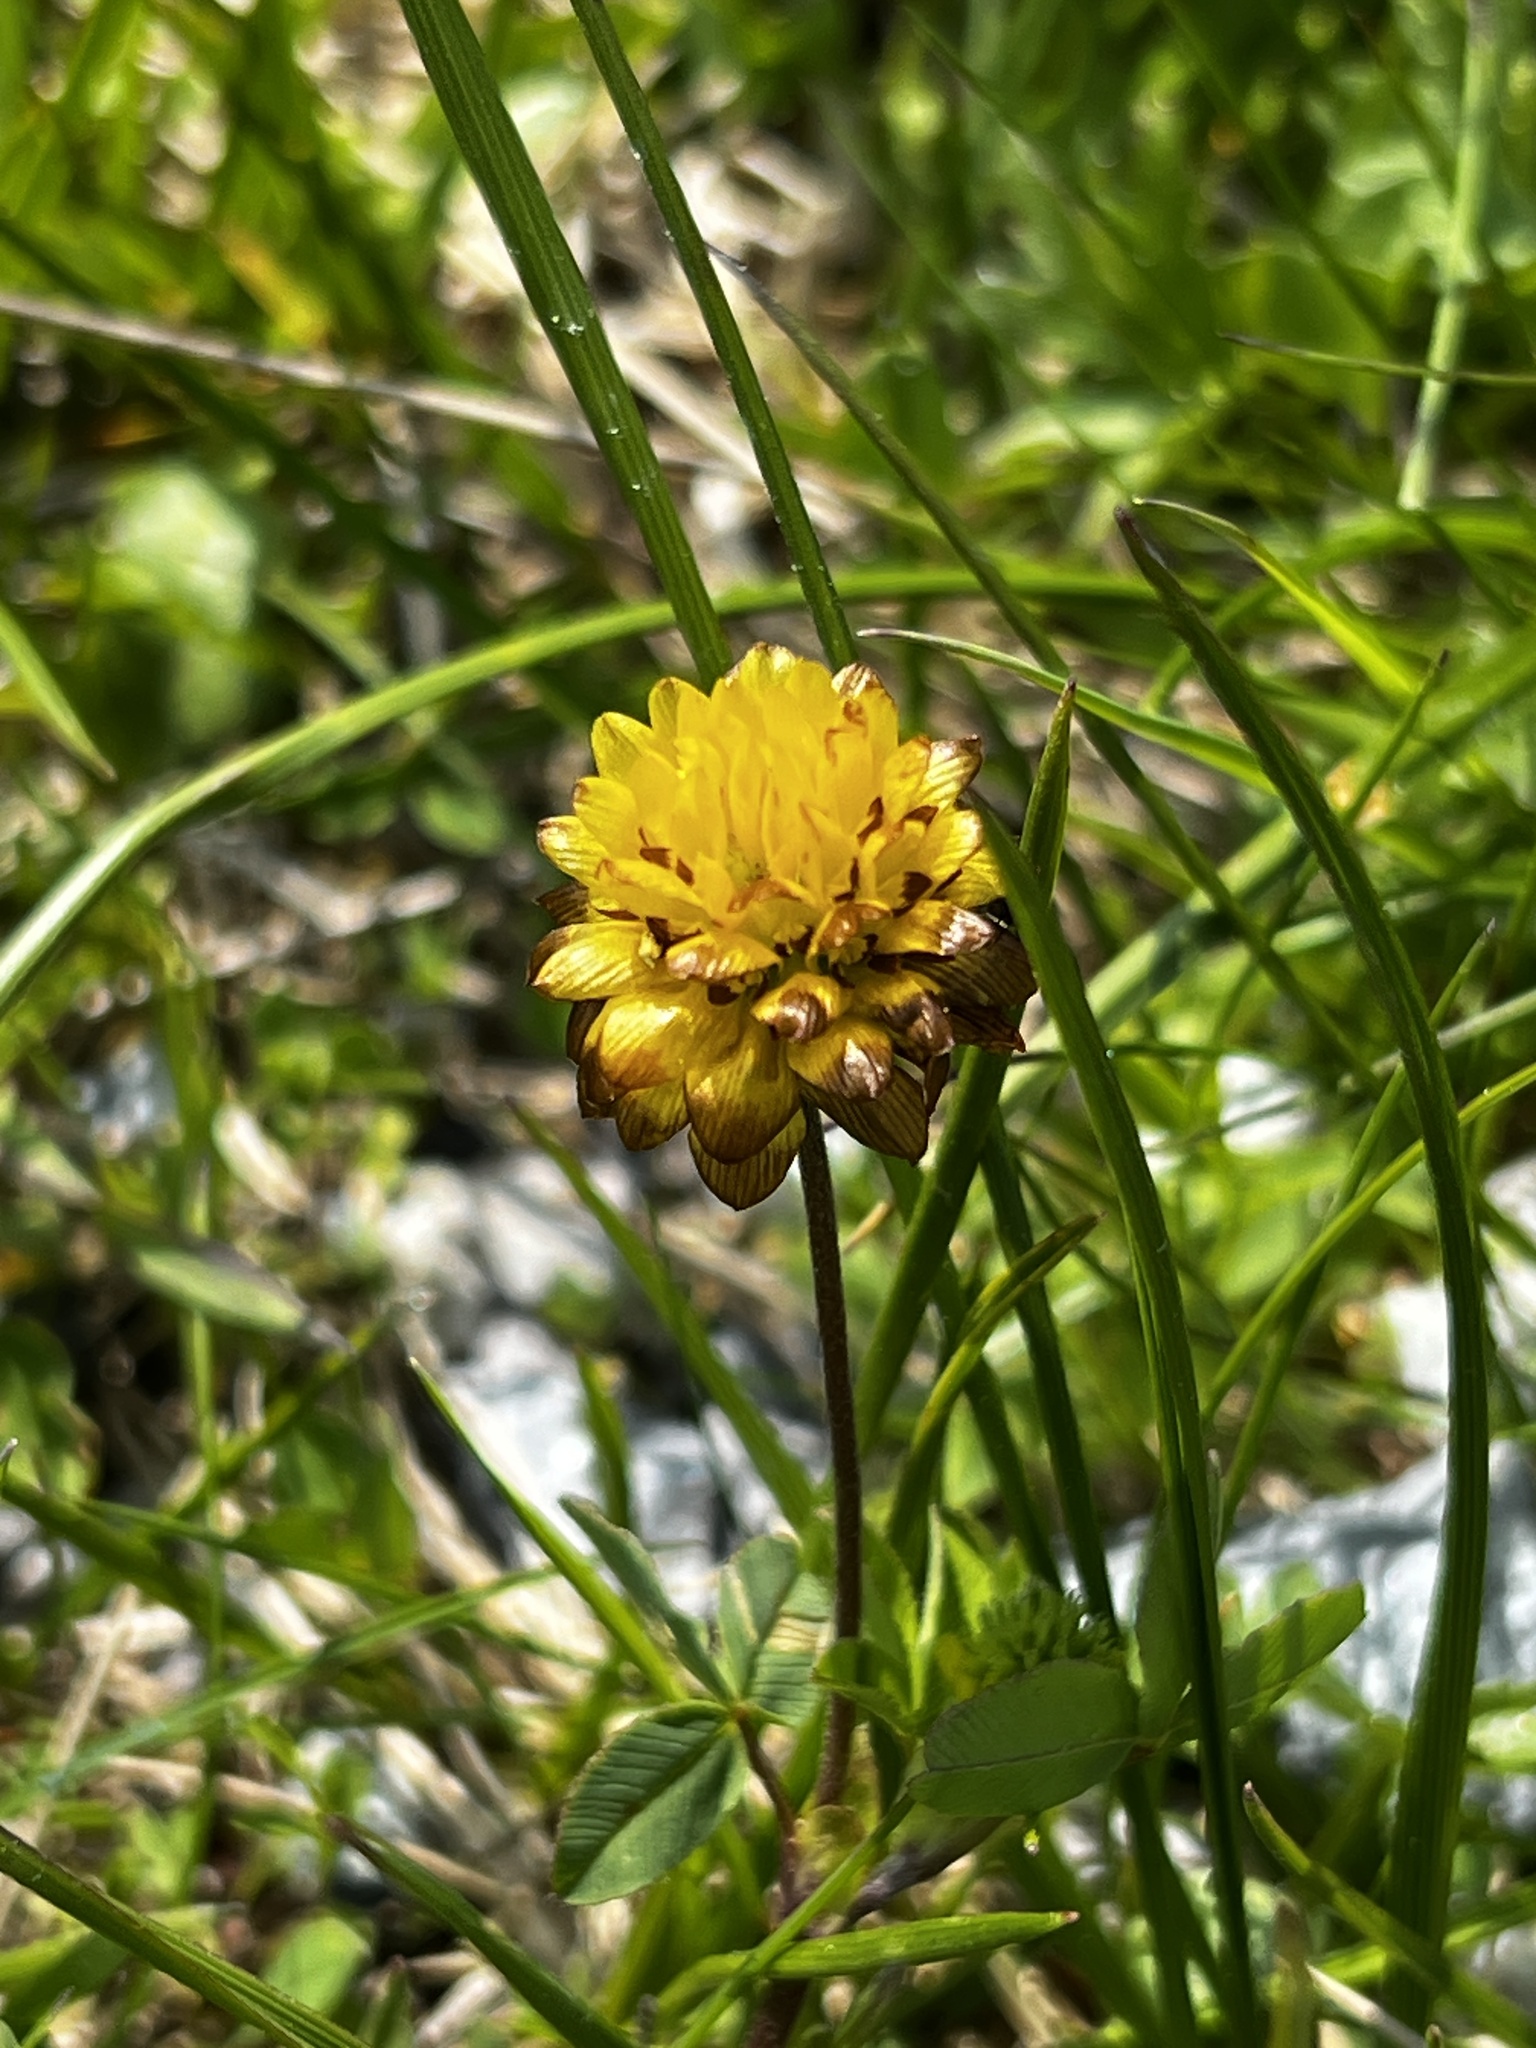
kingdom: Plantae
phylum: Tracheophyta
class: Magnoliopsida
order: Fabales
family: Fabaceae
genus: Trifolium
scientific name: Trifolium badium
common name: Brown clover
